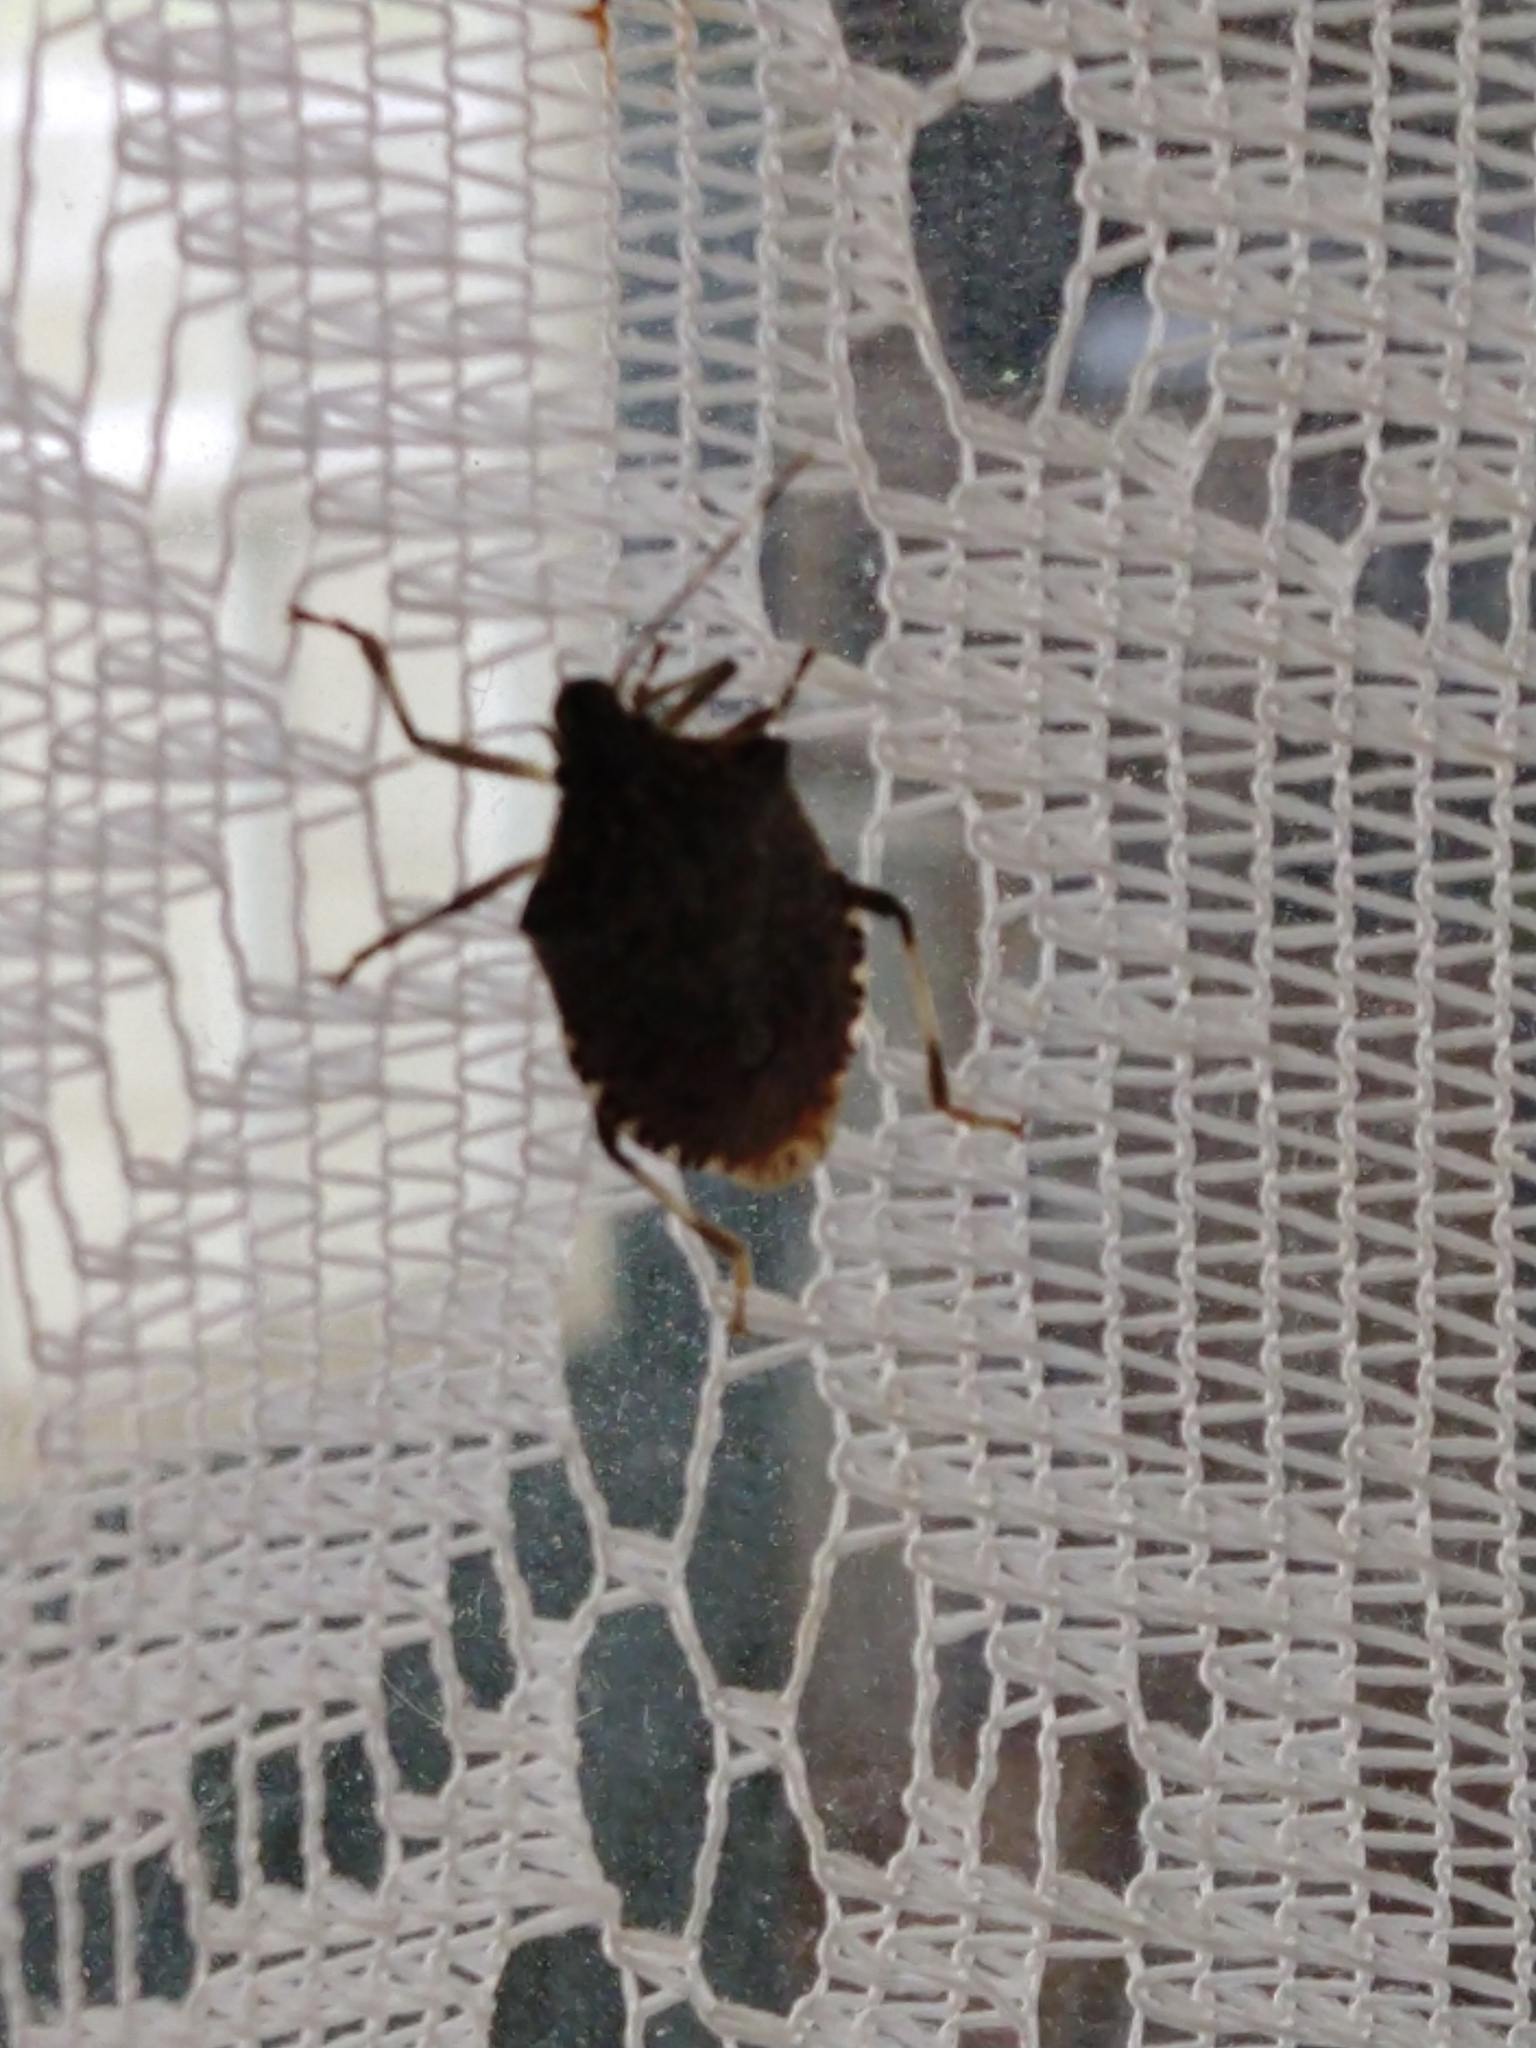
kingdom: Animalia
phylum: Arthropoda
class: Insecta
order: Hemiptera
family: Pentatomidae
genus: Halyomorpha
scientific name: Halyomorpha halys
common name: Brown marmorated stink bug
